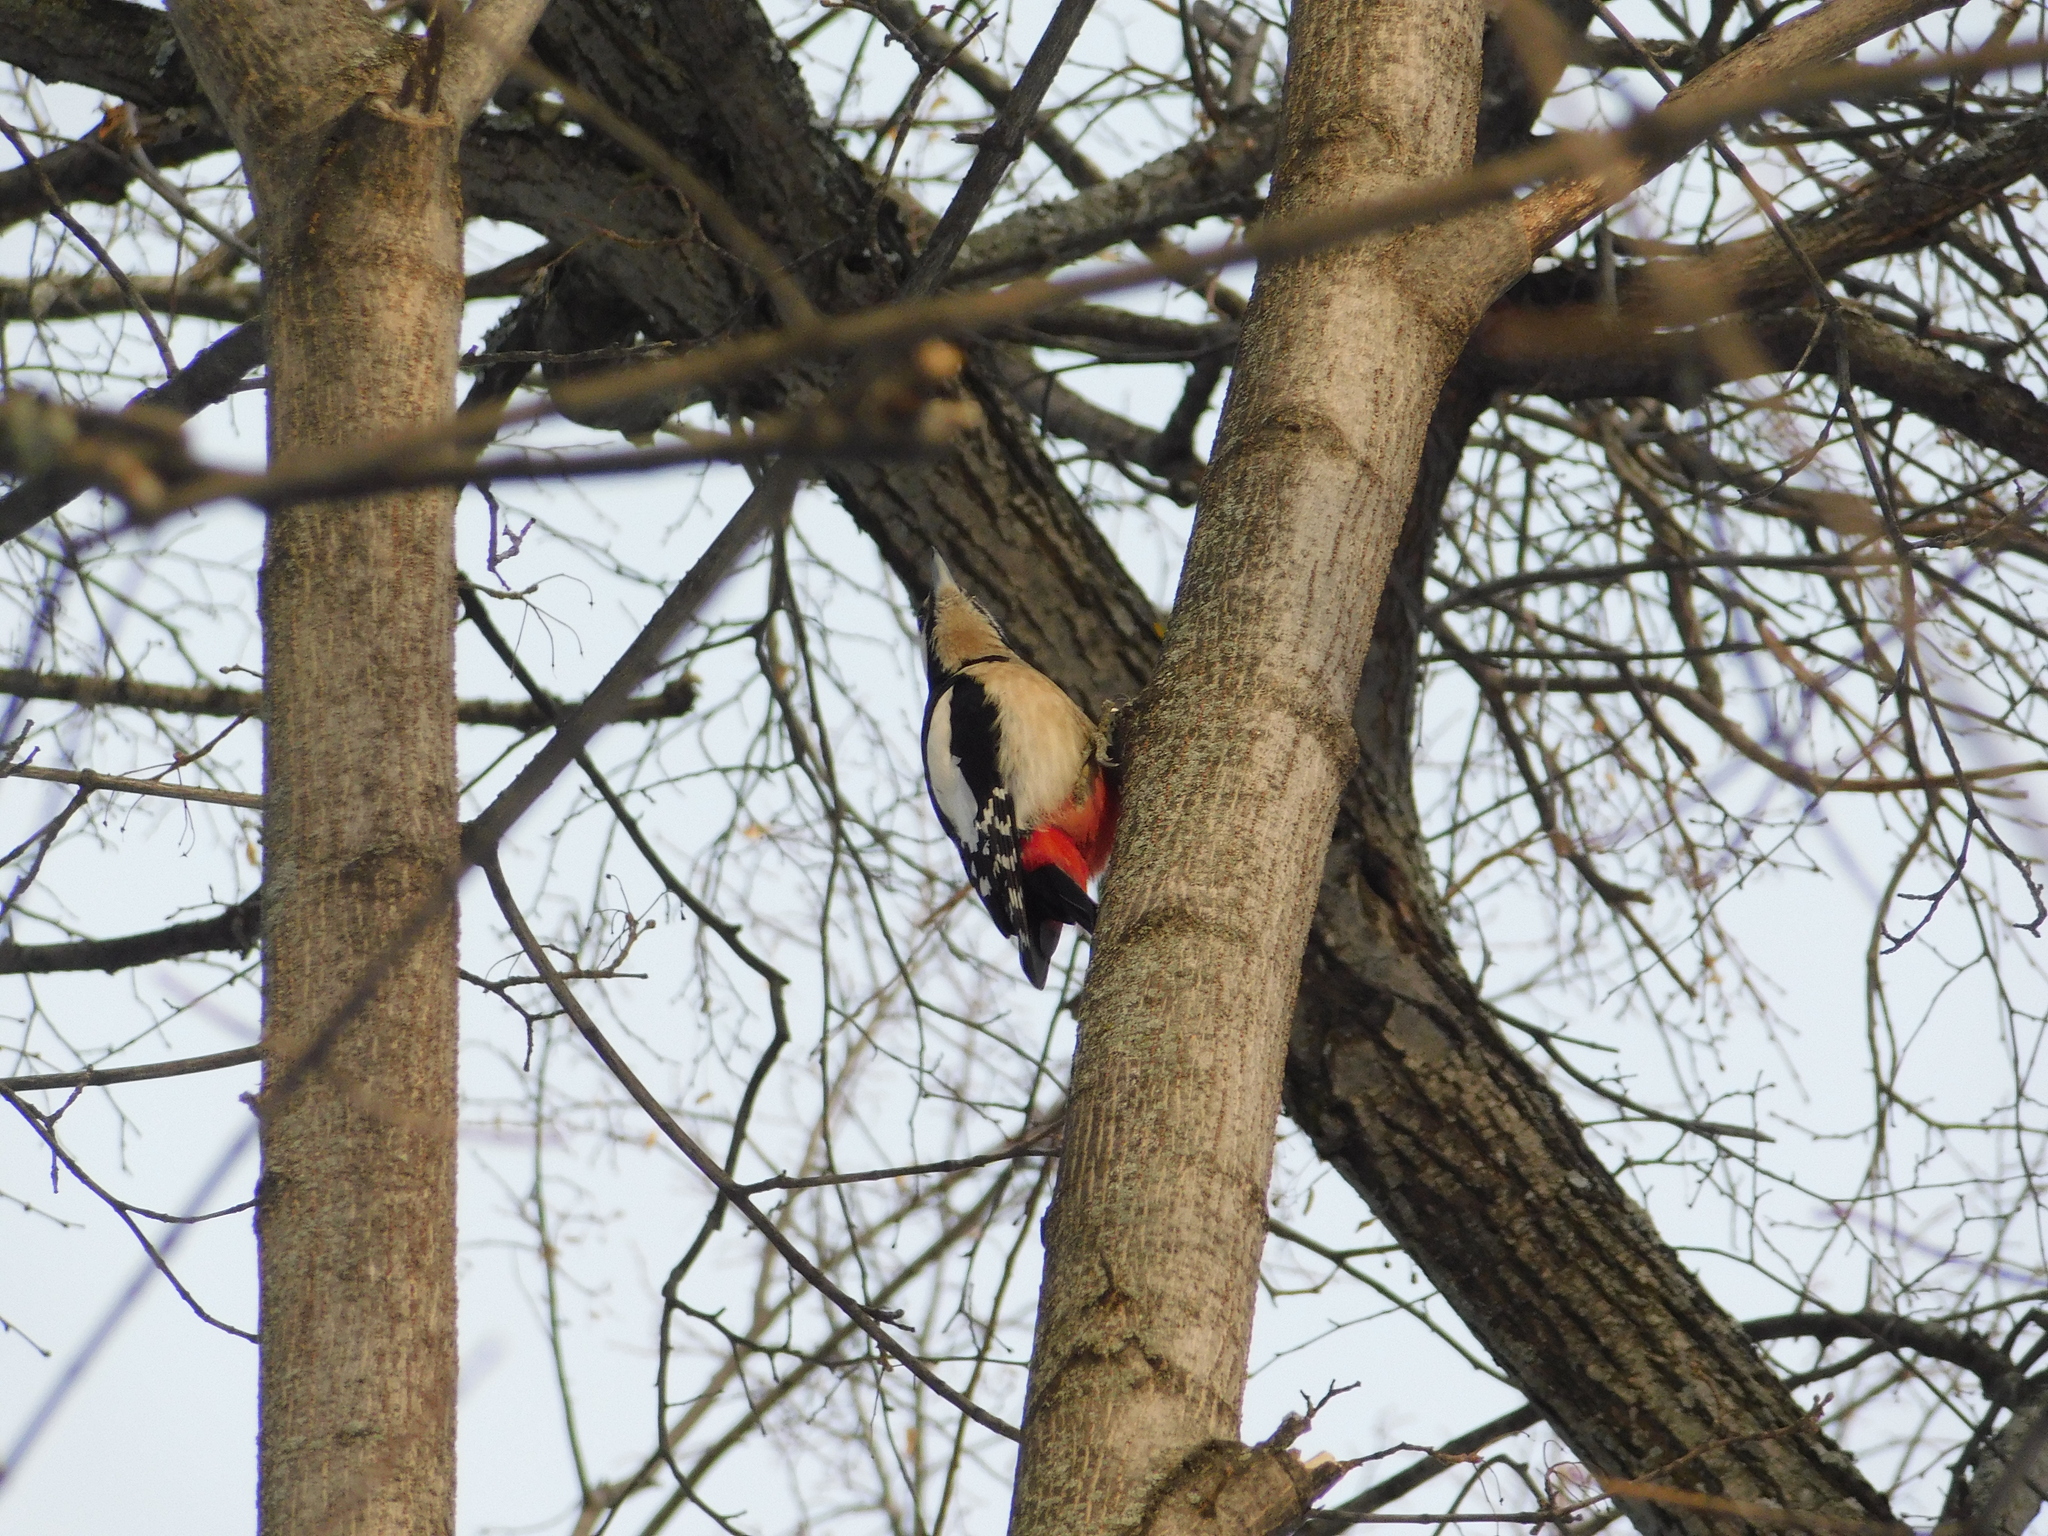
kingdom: Animalia
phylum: Chordata
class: Aves
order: Piciformes
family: Picidae
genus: Dendrocopos
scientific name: Dendrocopos major
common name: Great spotted woodpecker
